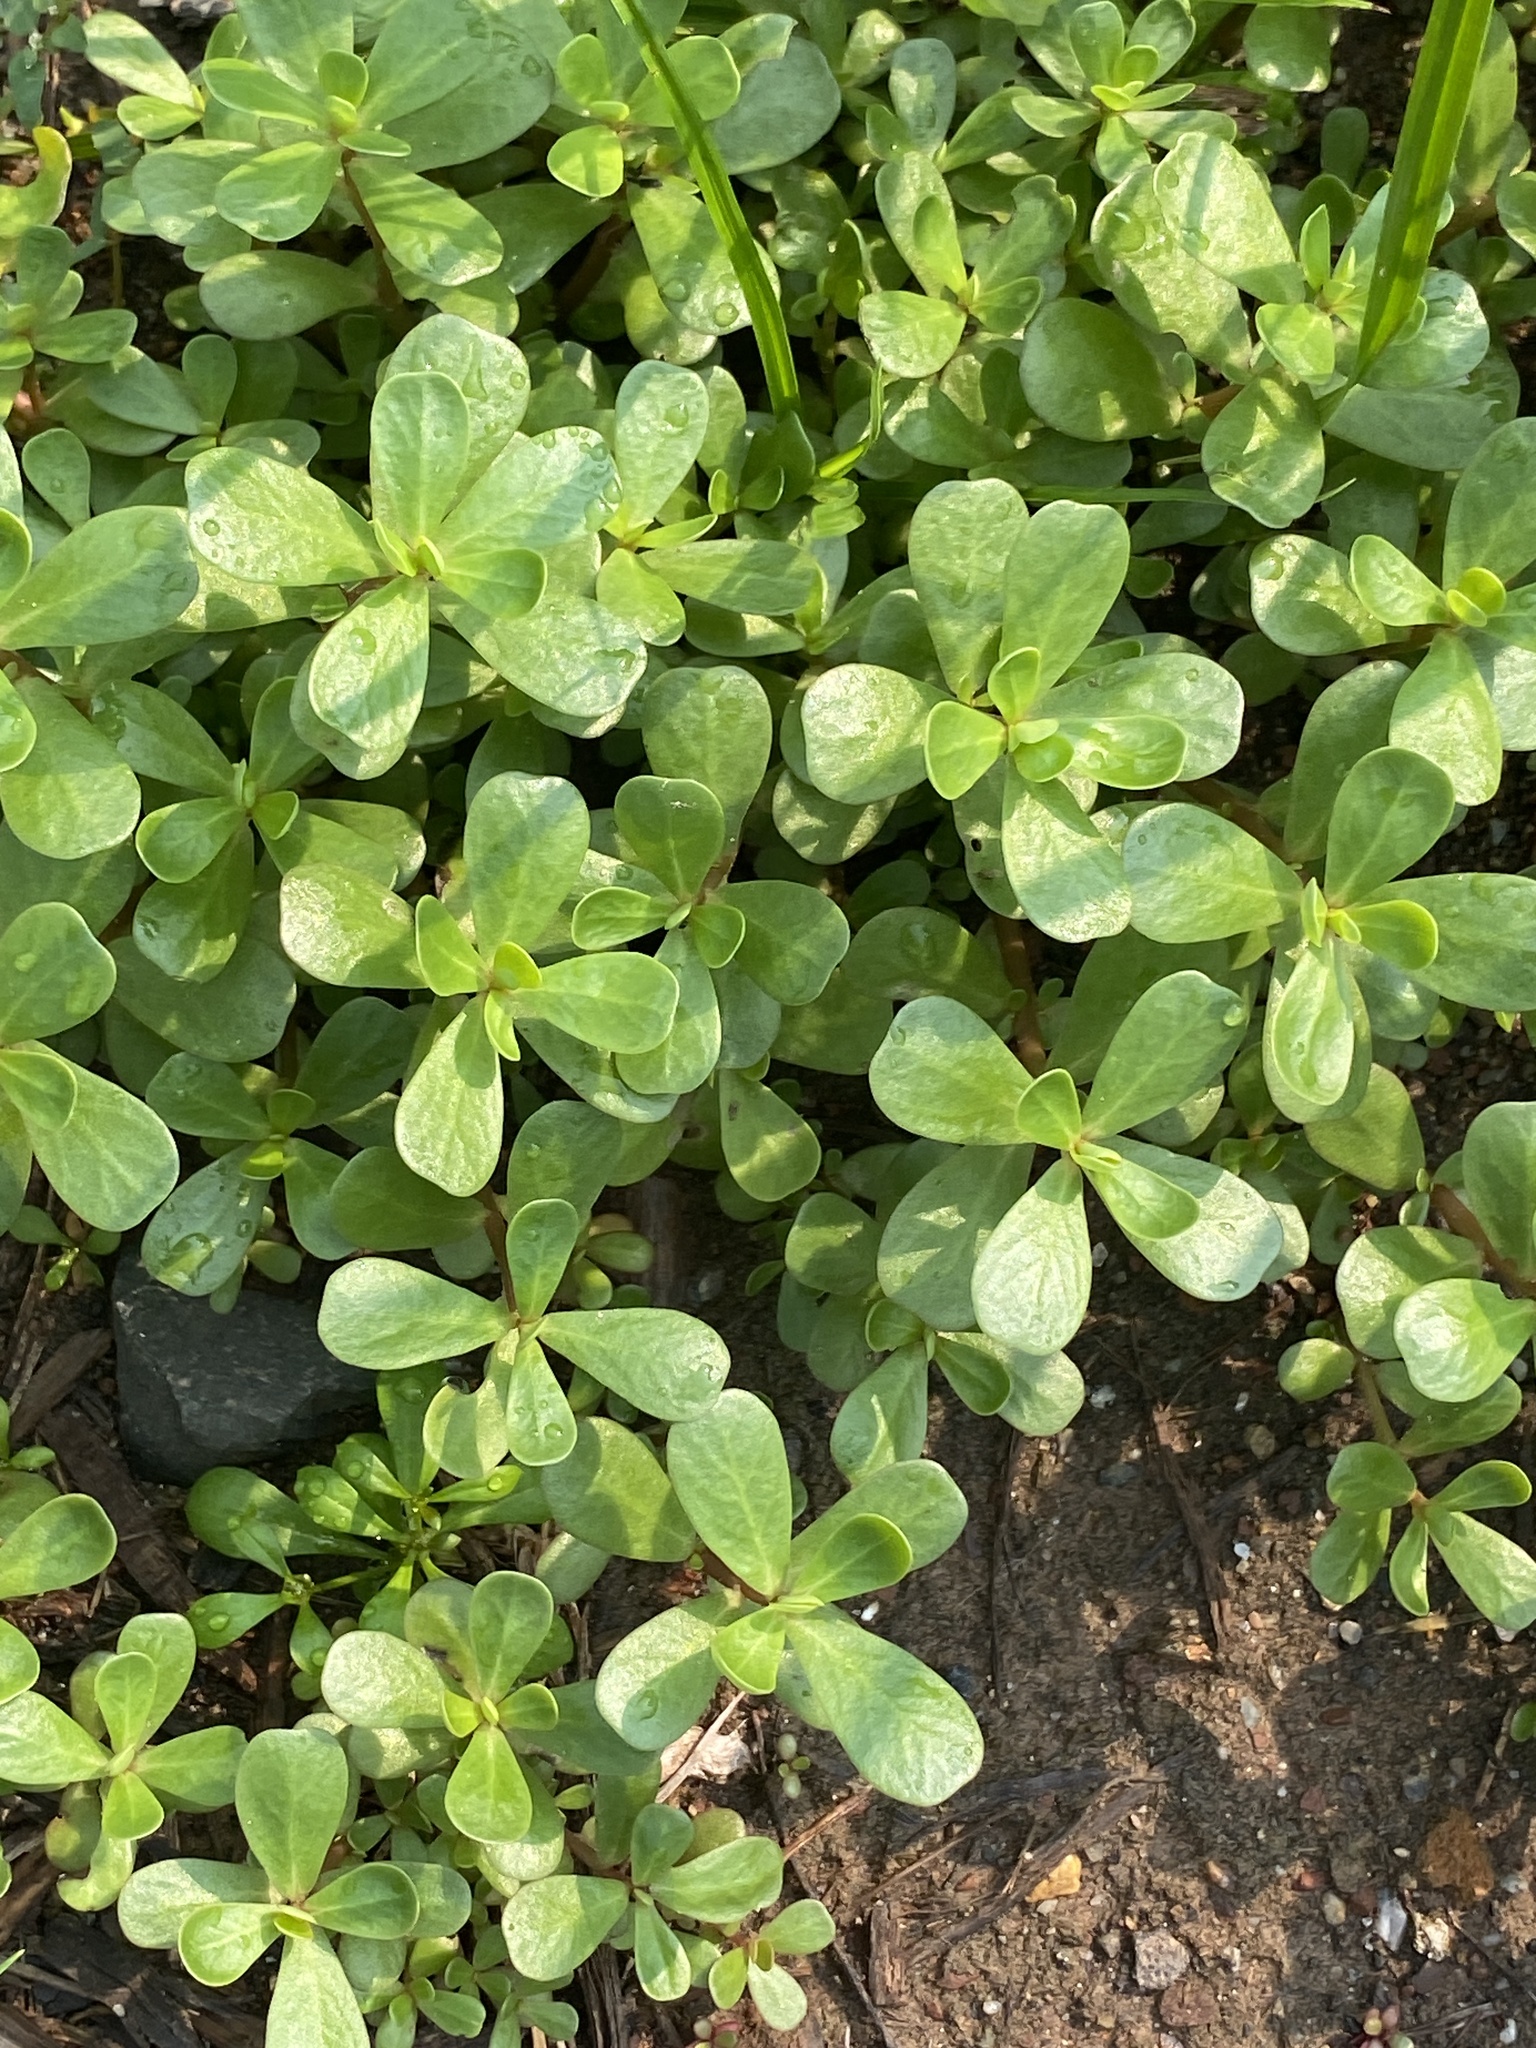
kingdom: Plantae
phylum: Tracheophyta
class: Magnoliopsida
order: Caryophyllales
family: Portulacaceae
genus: Portulaca
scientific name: Portulaca oleracea
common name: Common purslane
